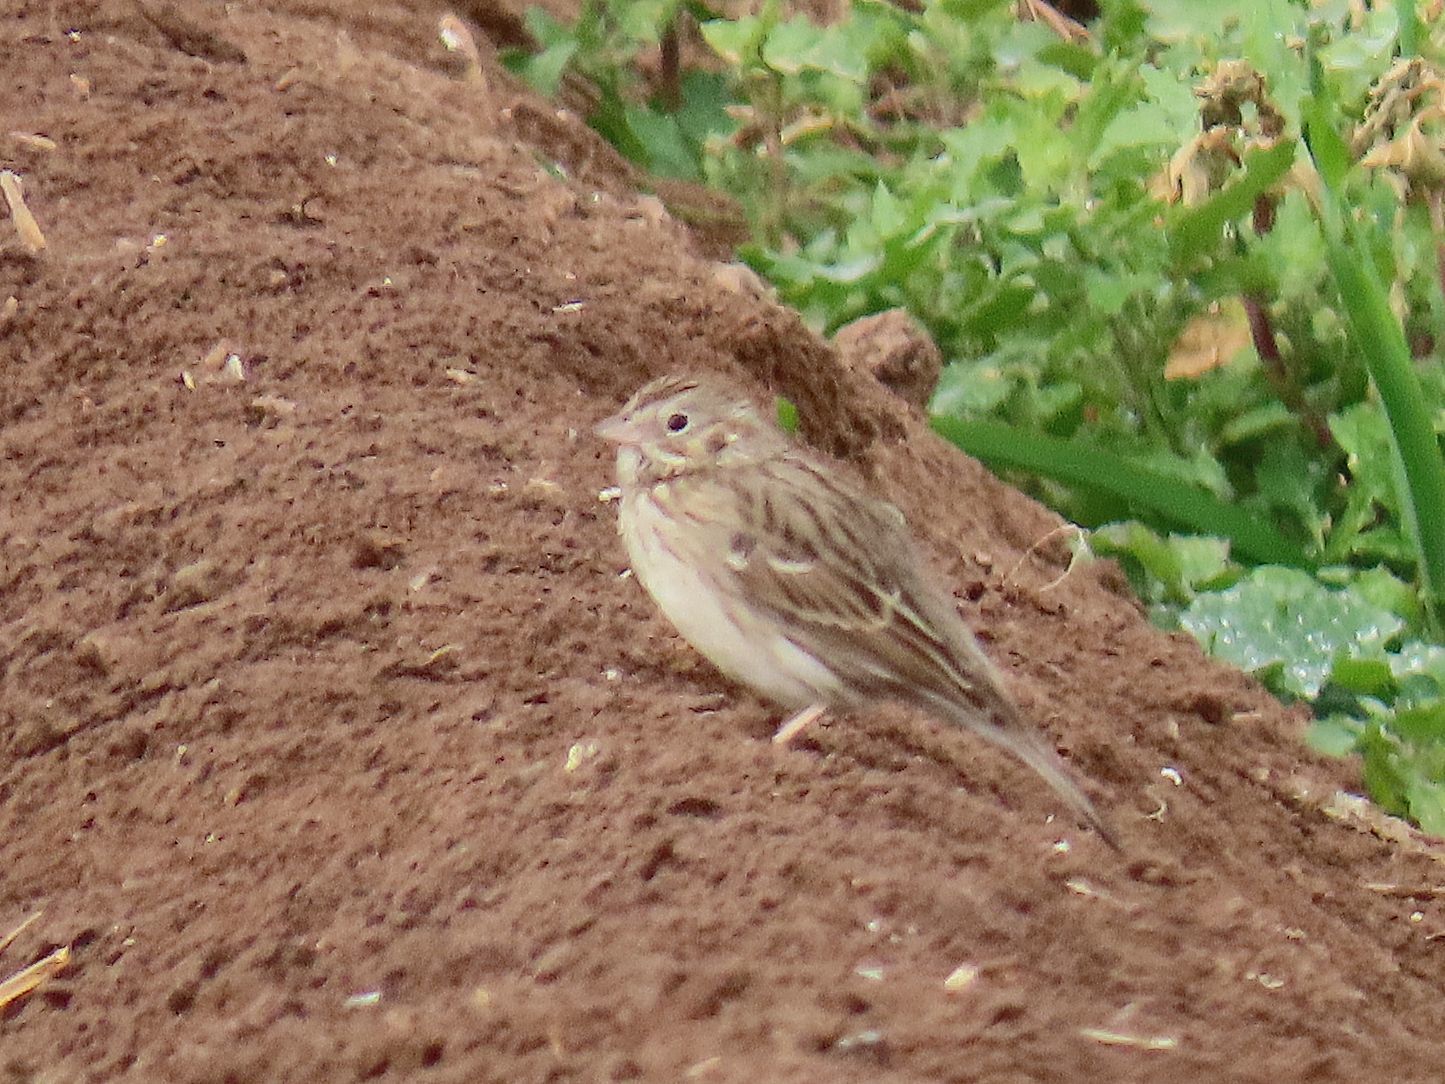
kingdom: Animalia
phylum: Chordata
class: Aves
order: Passeriformes
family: Passerellidae
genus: Pooecetes
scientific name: Pooecetes gramineus
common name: Vesper sparrow
